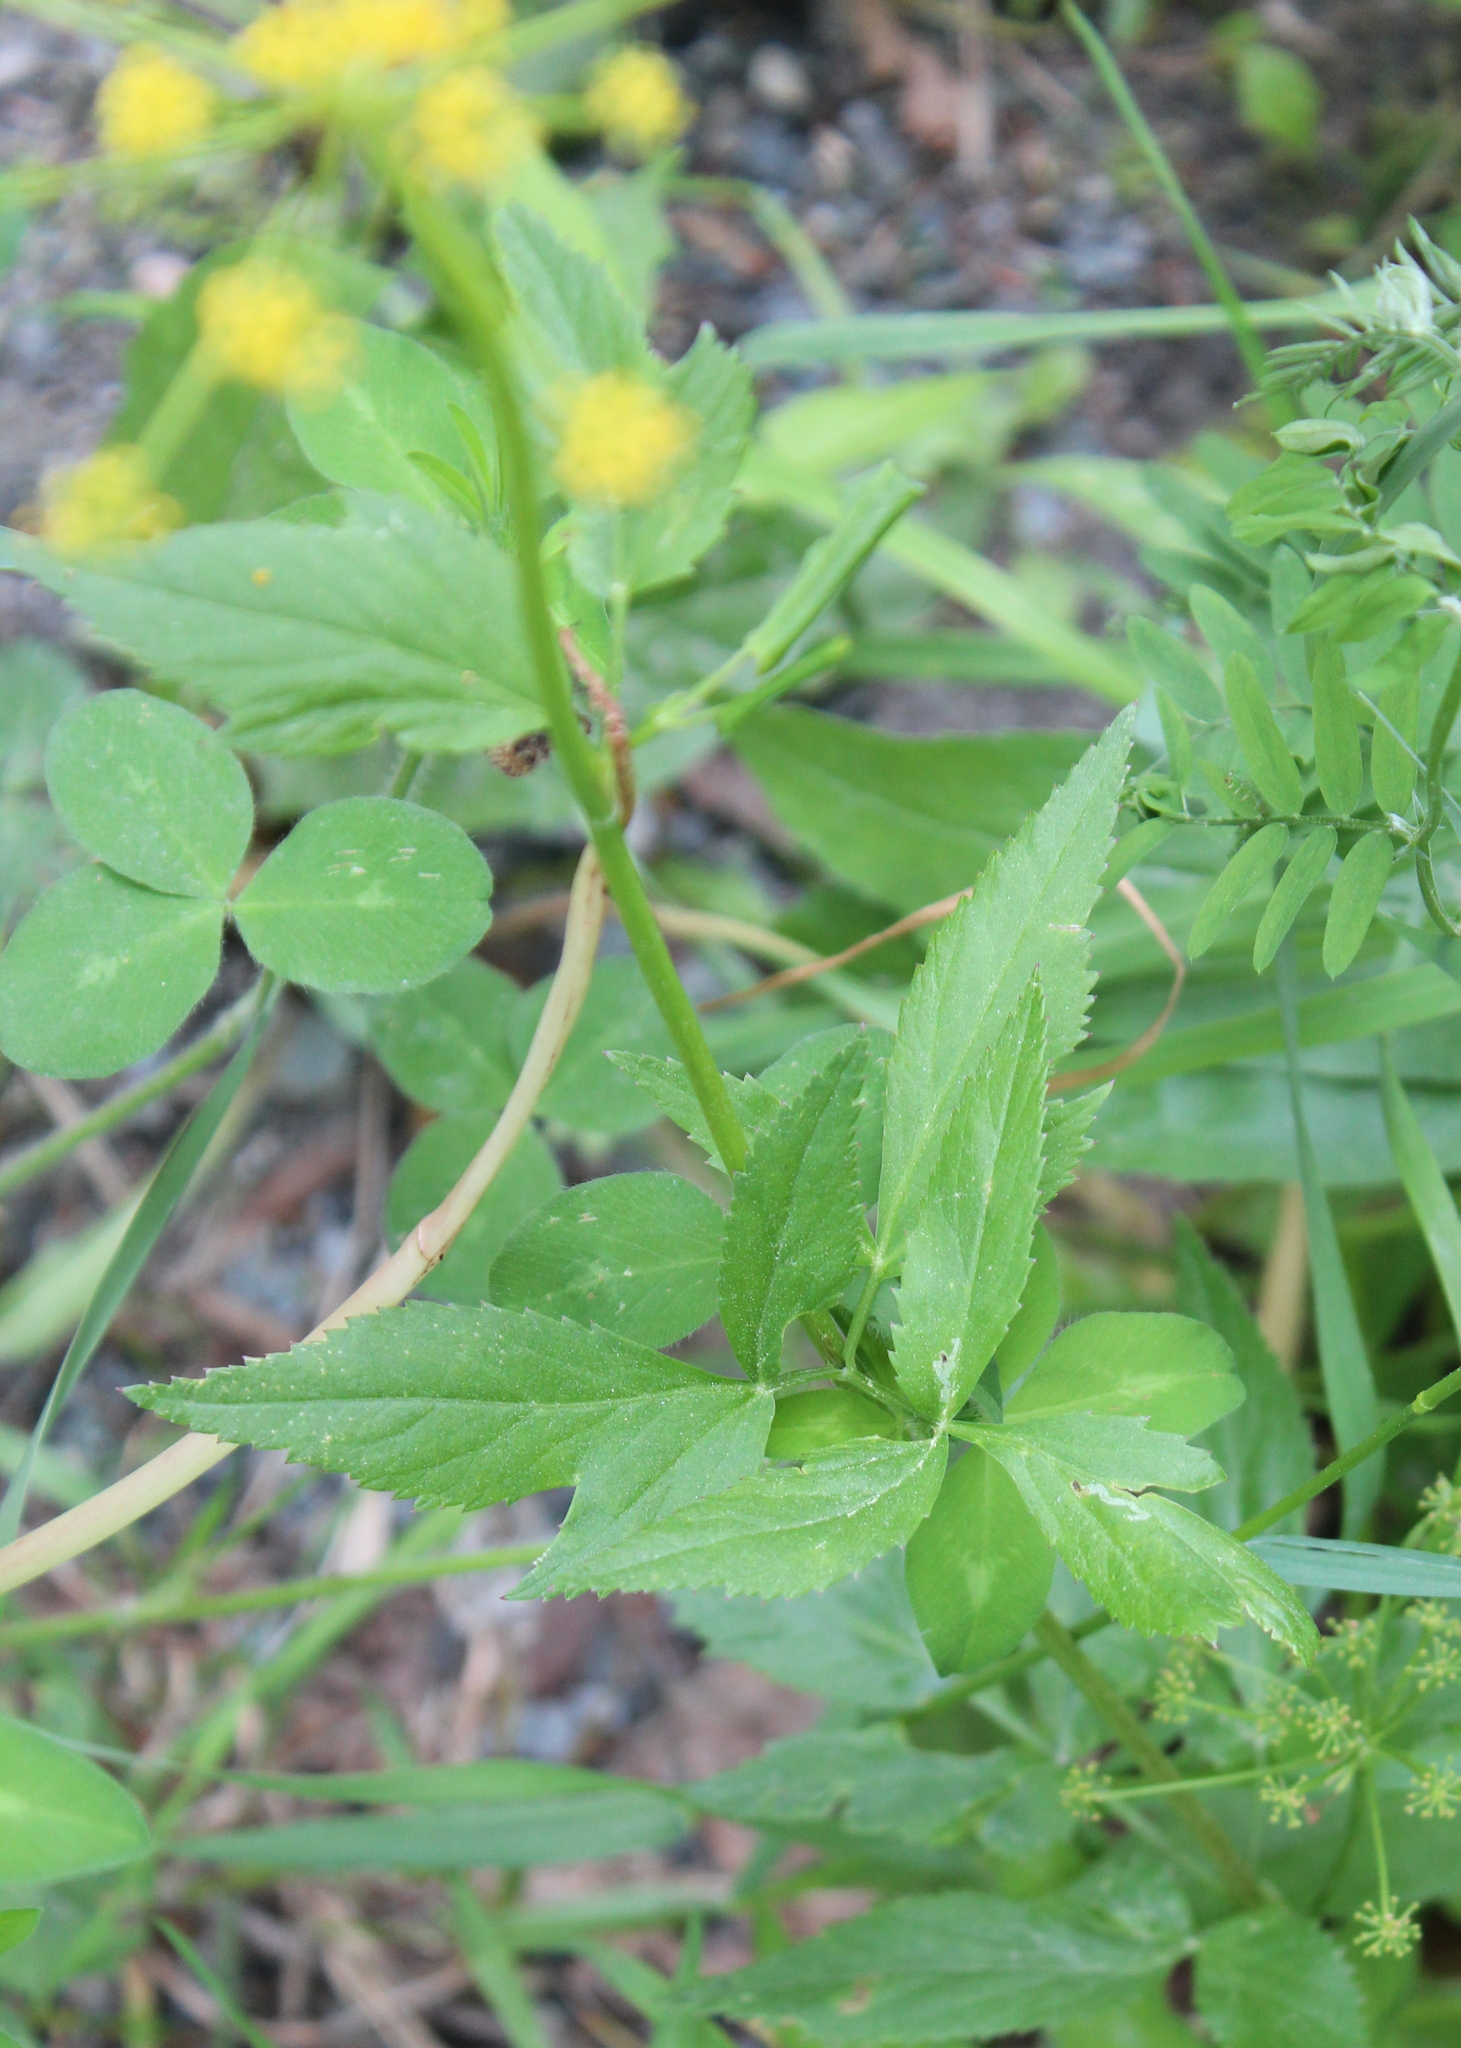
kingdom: Plantae
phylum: Tracheophyta
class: Magnoliopsida
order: Apiales
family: Apiaceae
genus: Zizia
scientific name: Zizia aurea
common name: Golden alexanders
